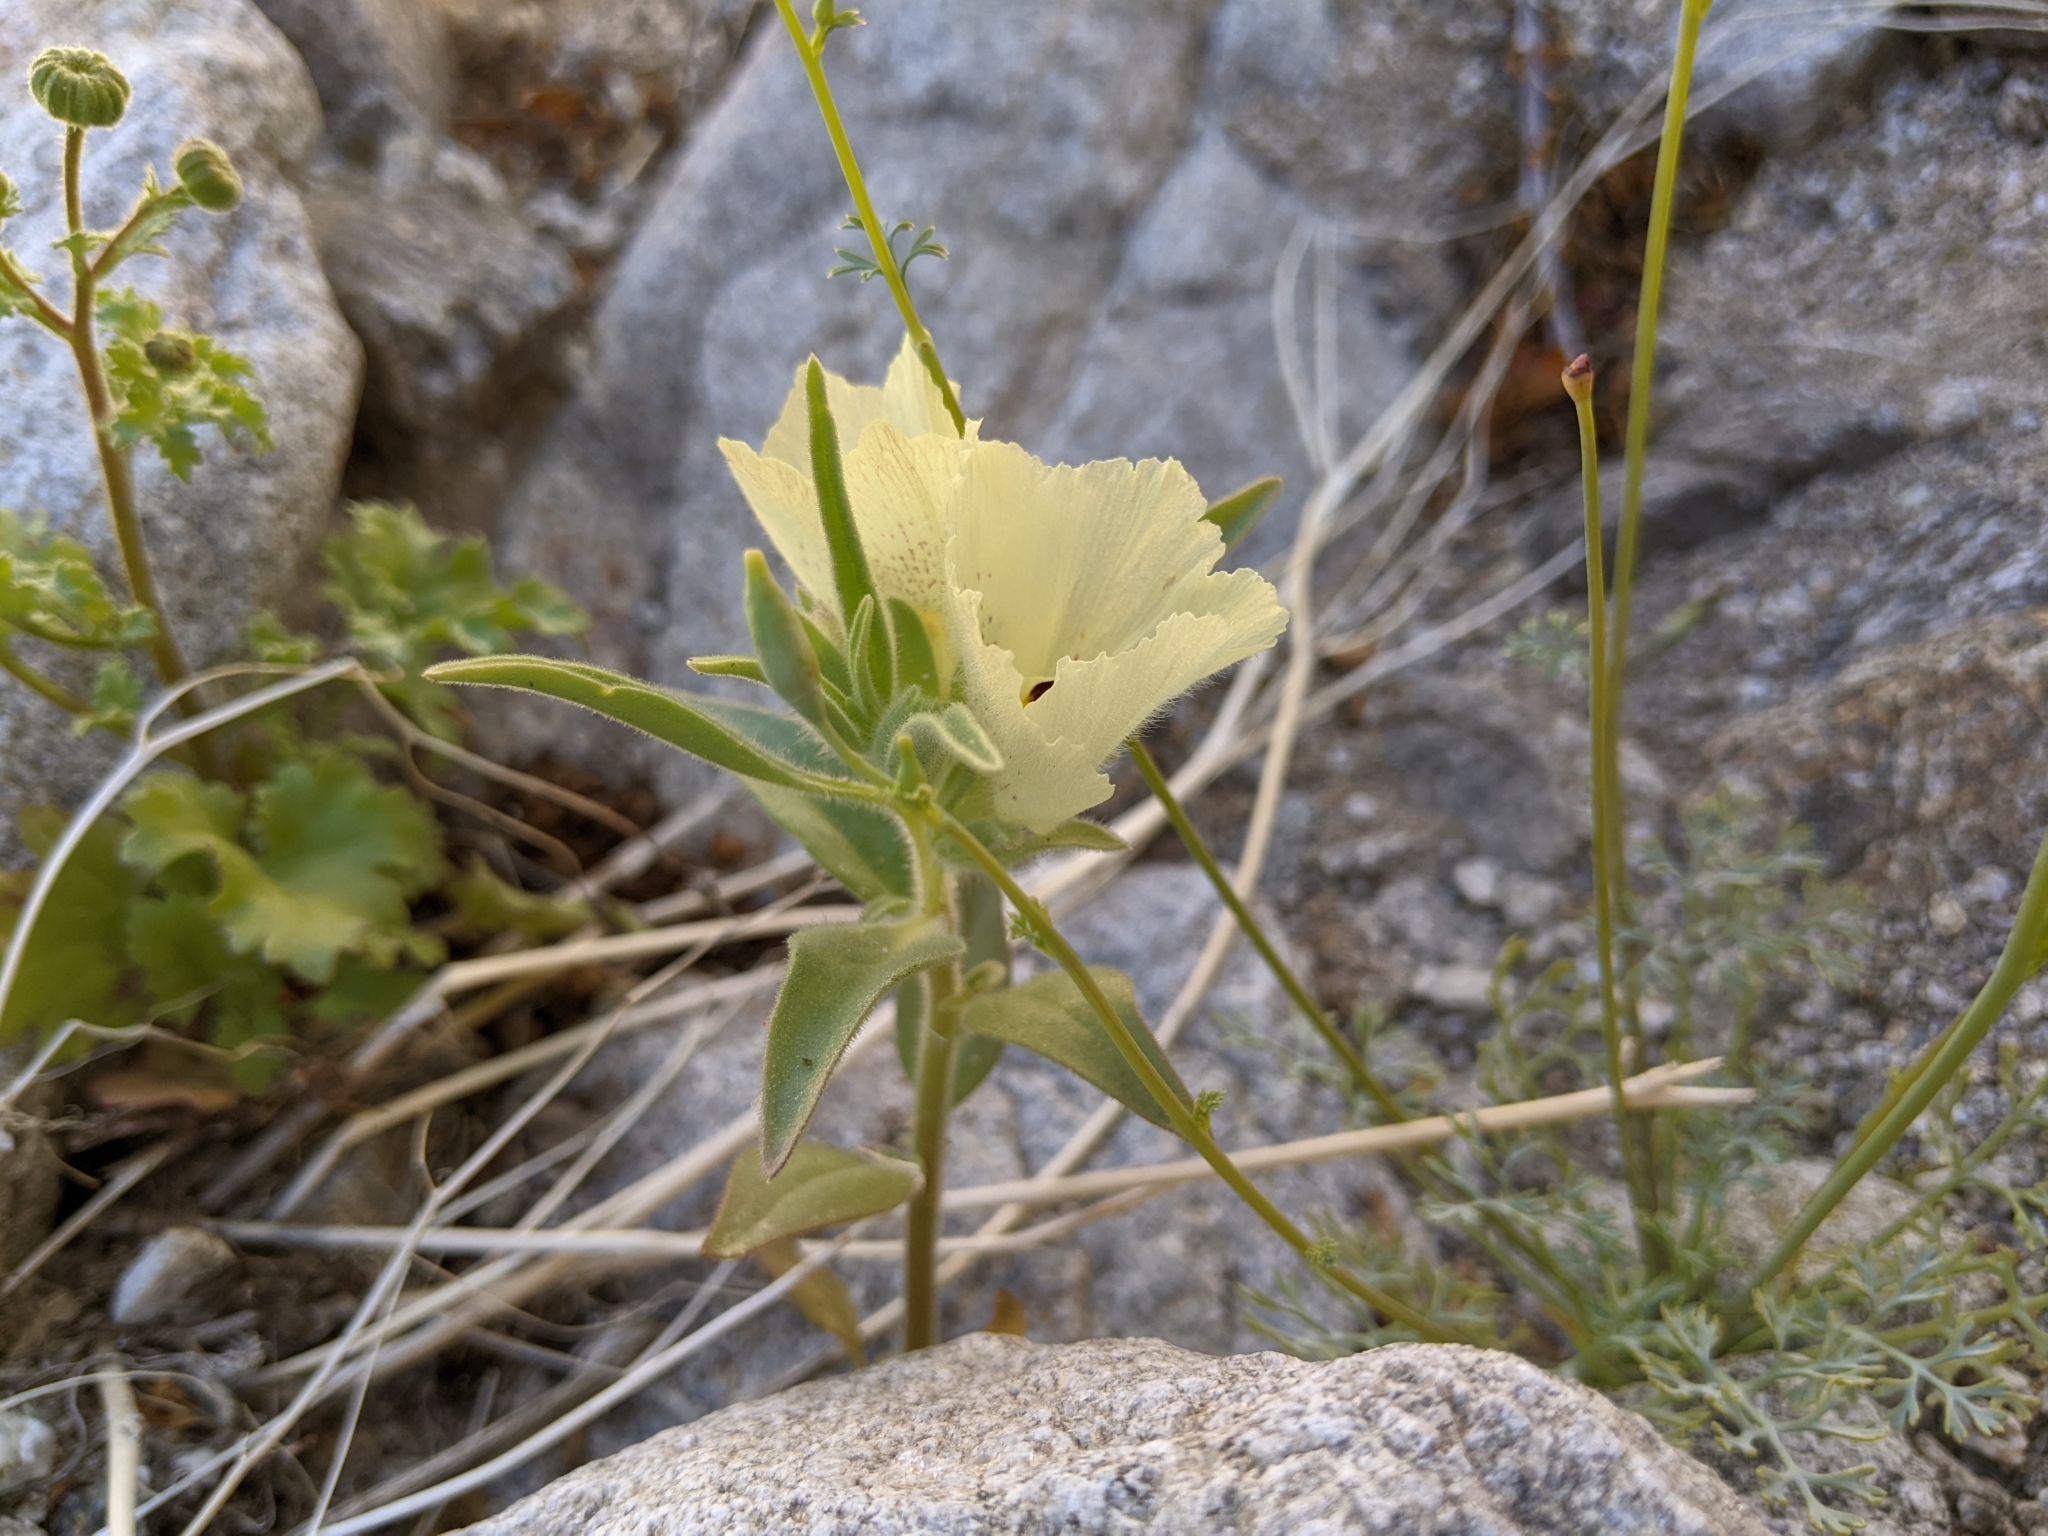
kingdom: Plantae
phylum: Tracheophyta
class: Magnoliopsida
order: Lamiales
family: Plantaginaceae
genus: Mohavea
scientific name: Mohavea confertiflora
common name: Ghost flower
